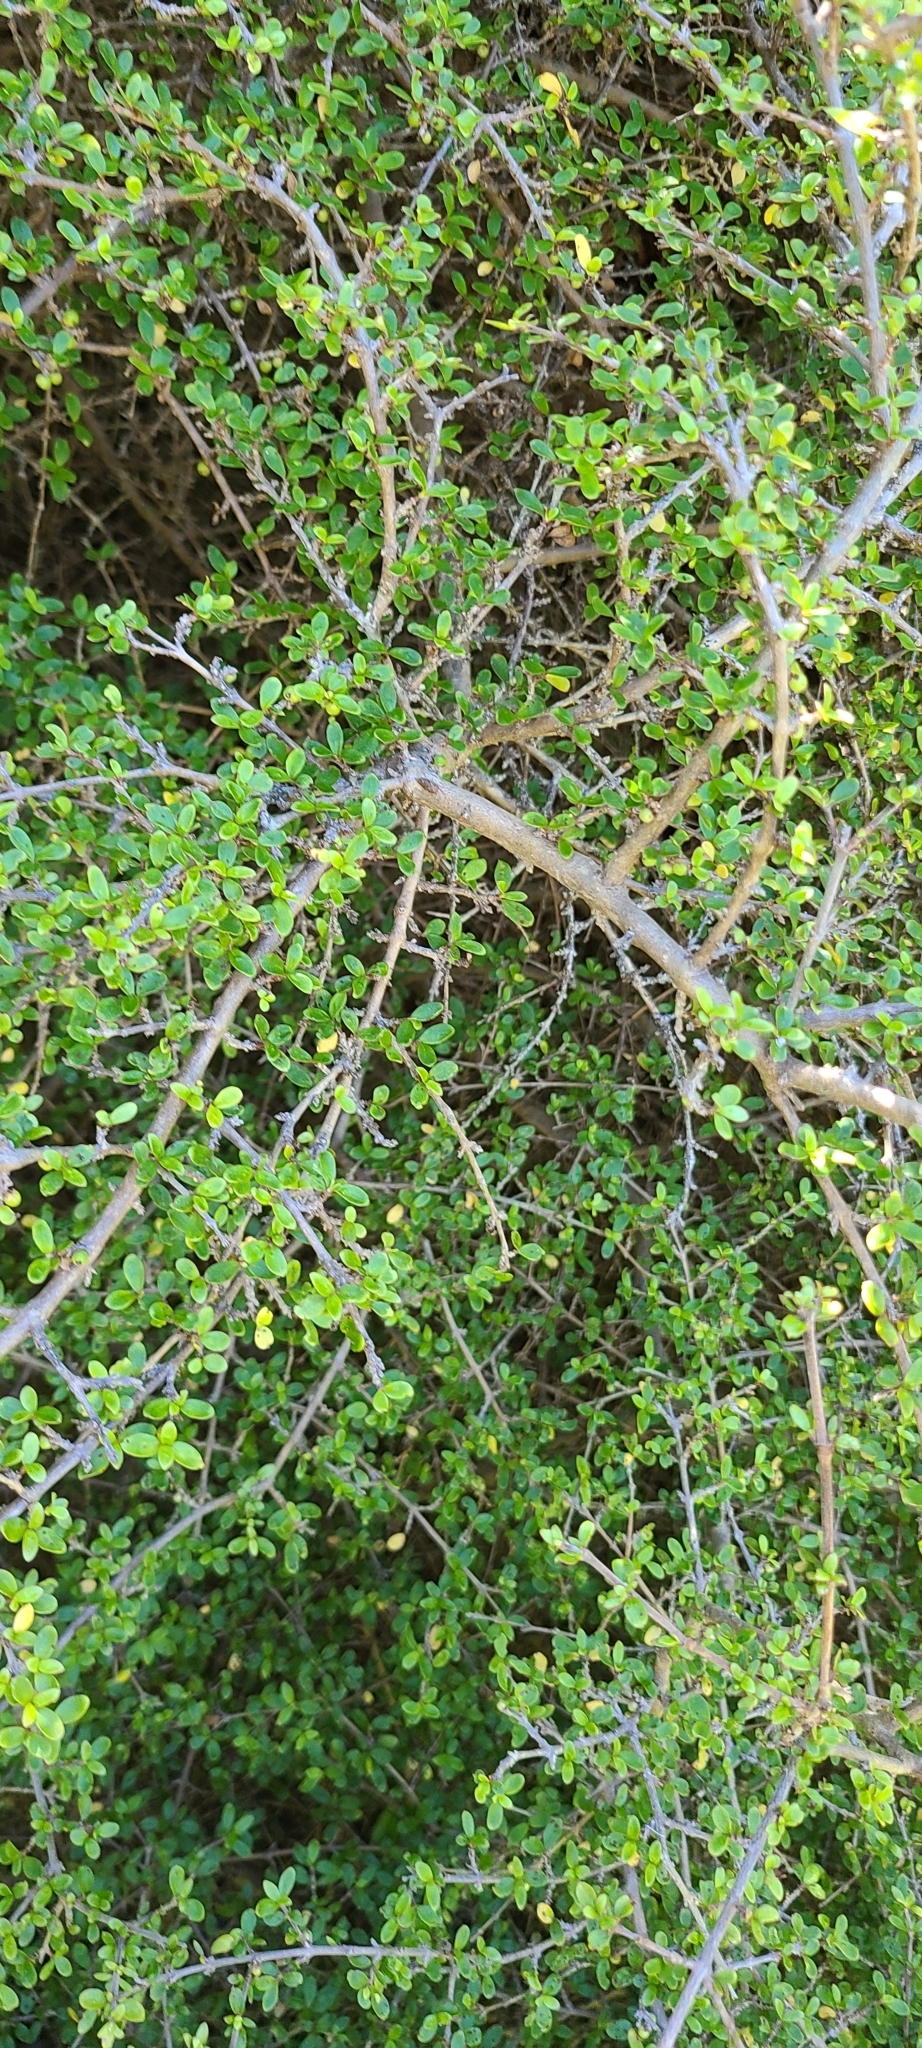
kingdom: Plantae
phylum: Tracheophyta
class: Magnoliopsida
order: Gentianales
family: Rubiaceae
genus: Coprosma
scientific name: Coprosma dumosa
